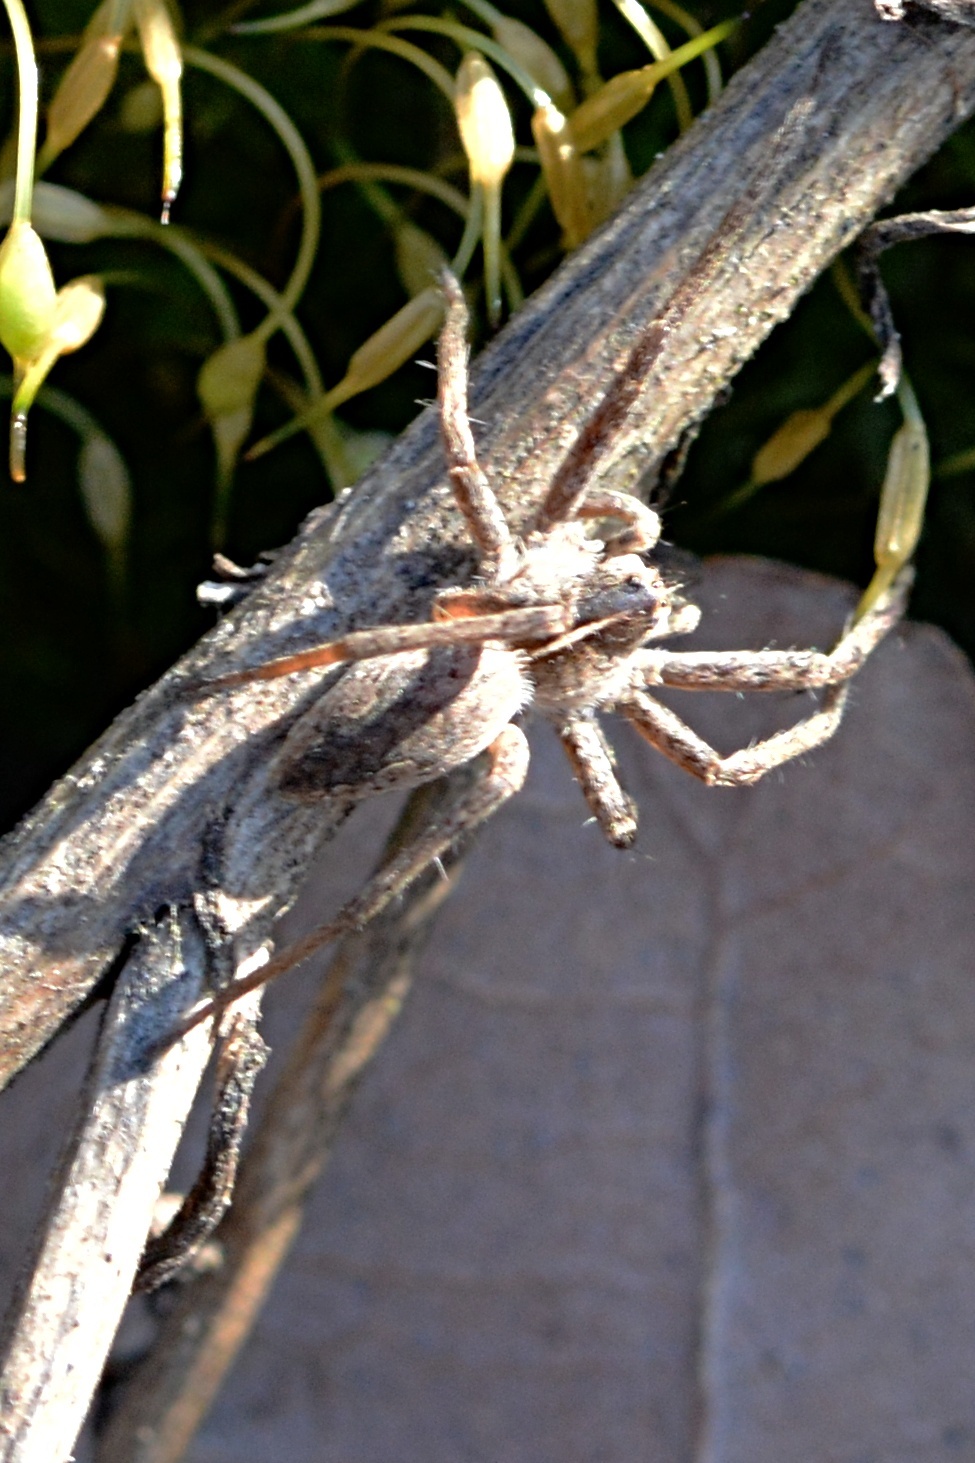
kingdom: Animalia
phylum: Arthropoda
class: Arachnida
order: Araneae
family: Pisauridae
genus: Pisaura
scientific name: Pisaura mirabilis
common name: Tent spider
